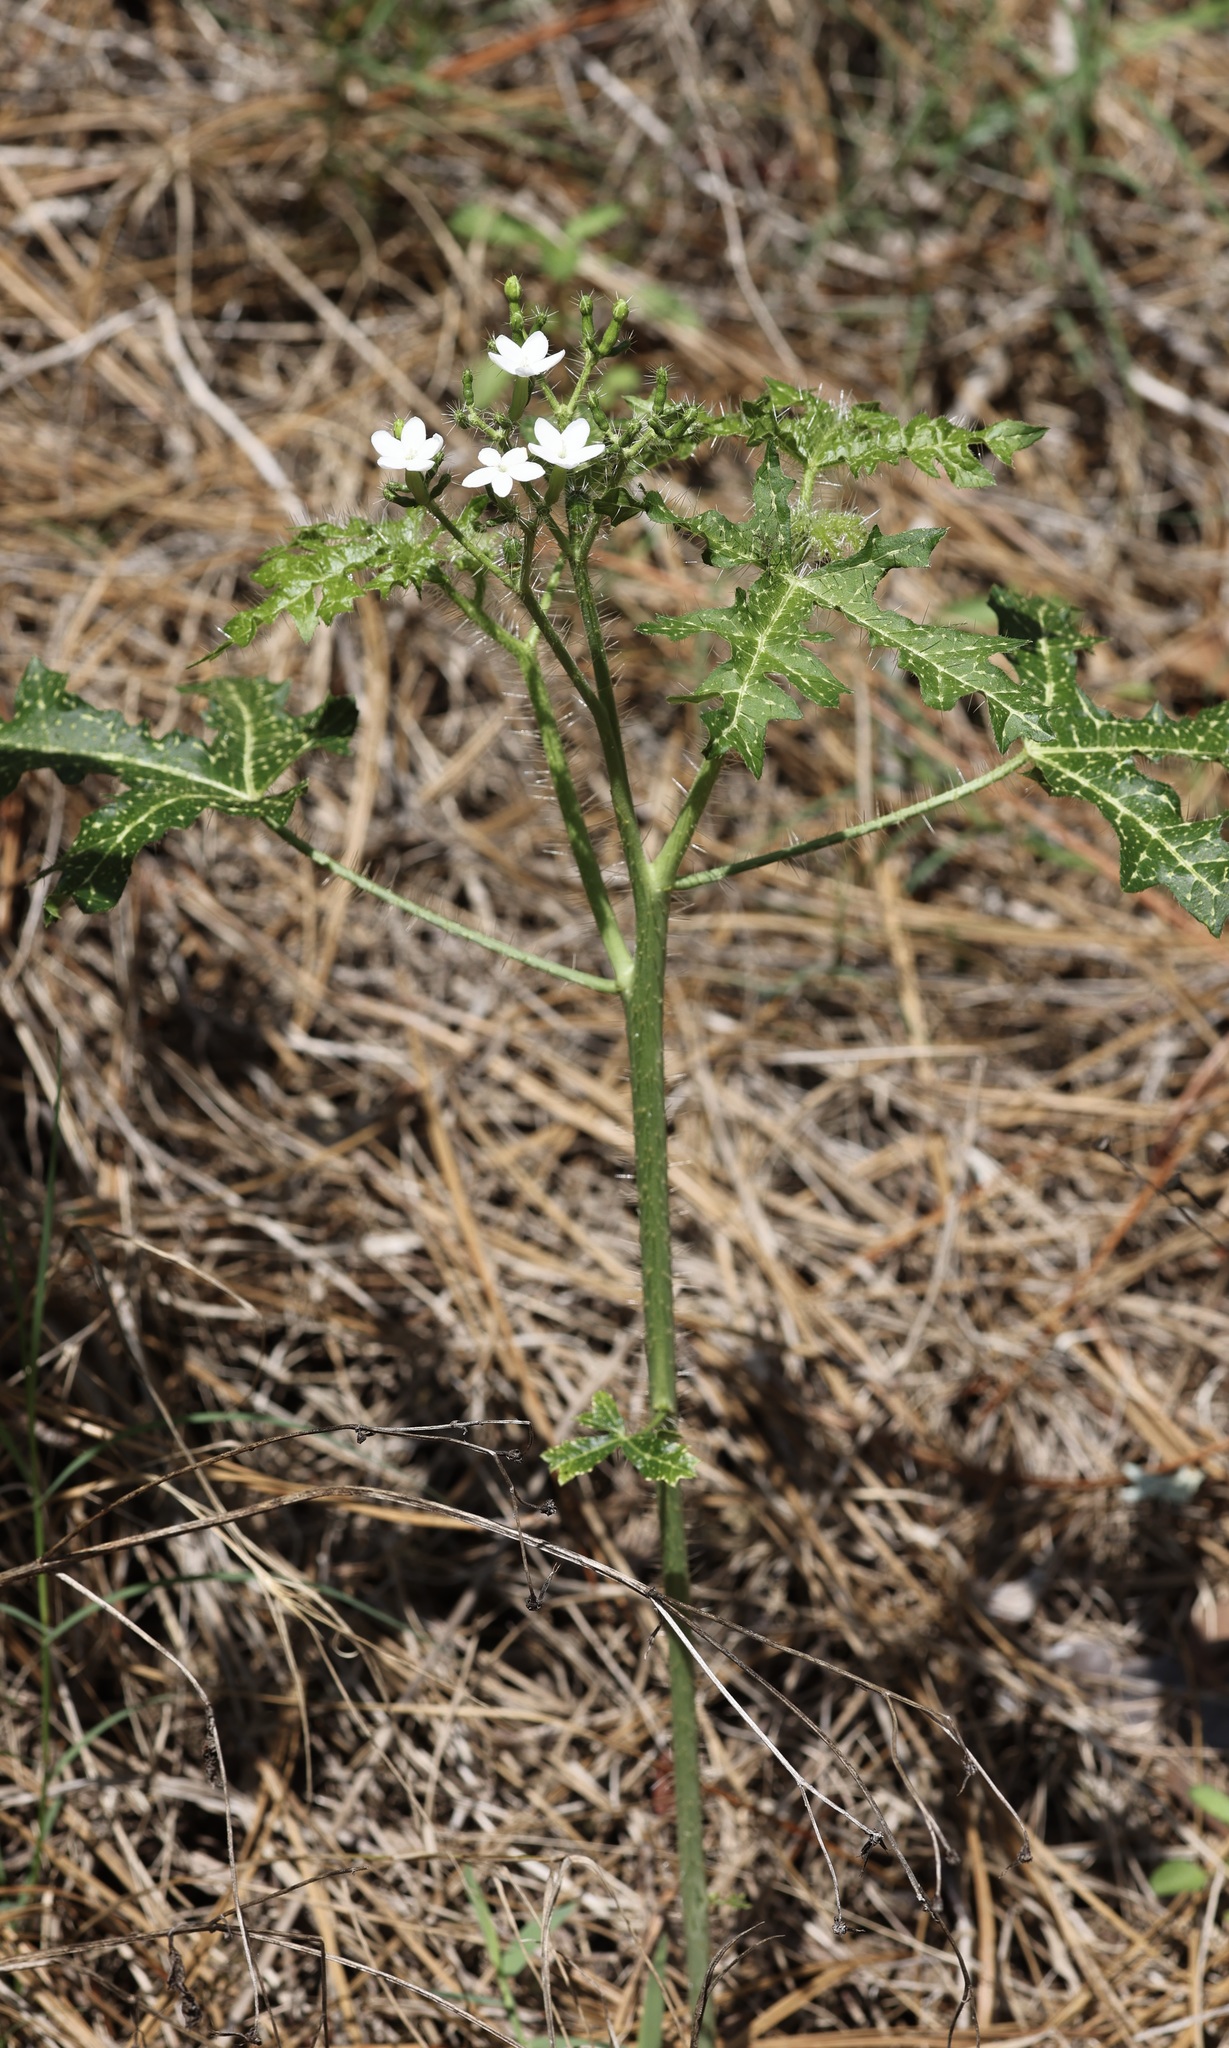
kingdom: Plantae
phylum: Tracheophyta
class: Magnoliopsida
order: Malpighiales
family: Euphorbiaceae
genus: Cnidoscolus
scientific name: Cnidoscolus stimulosus
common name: Bull-nettle
